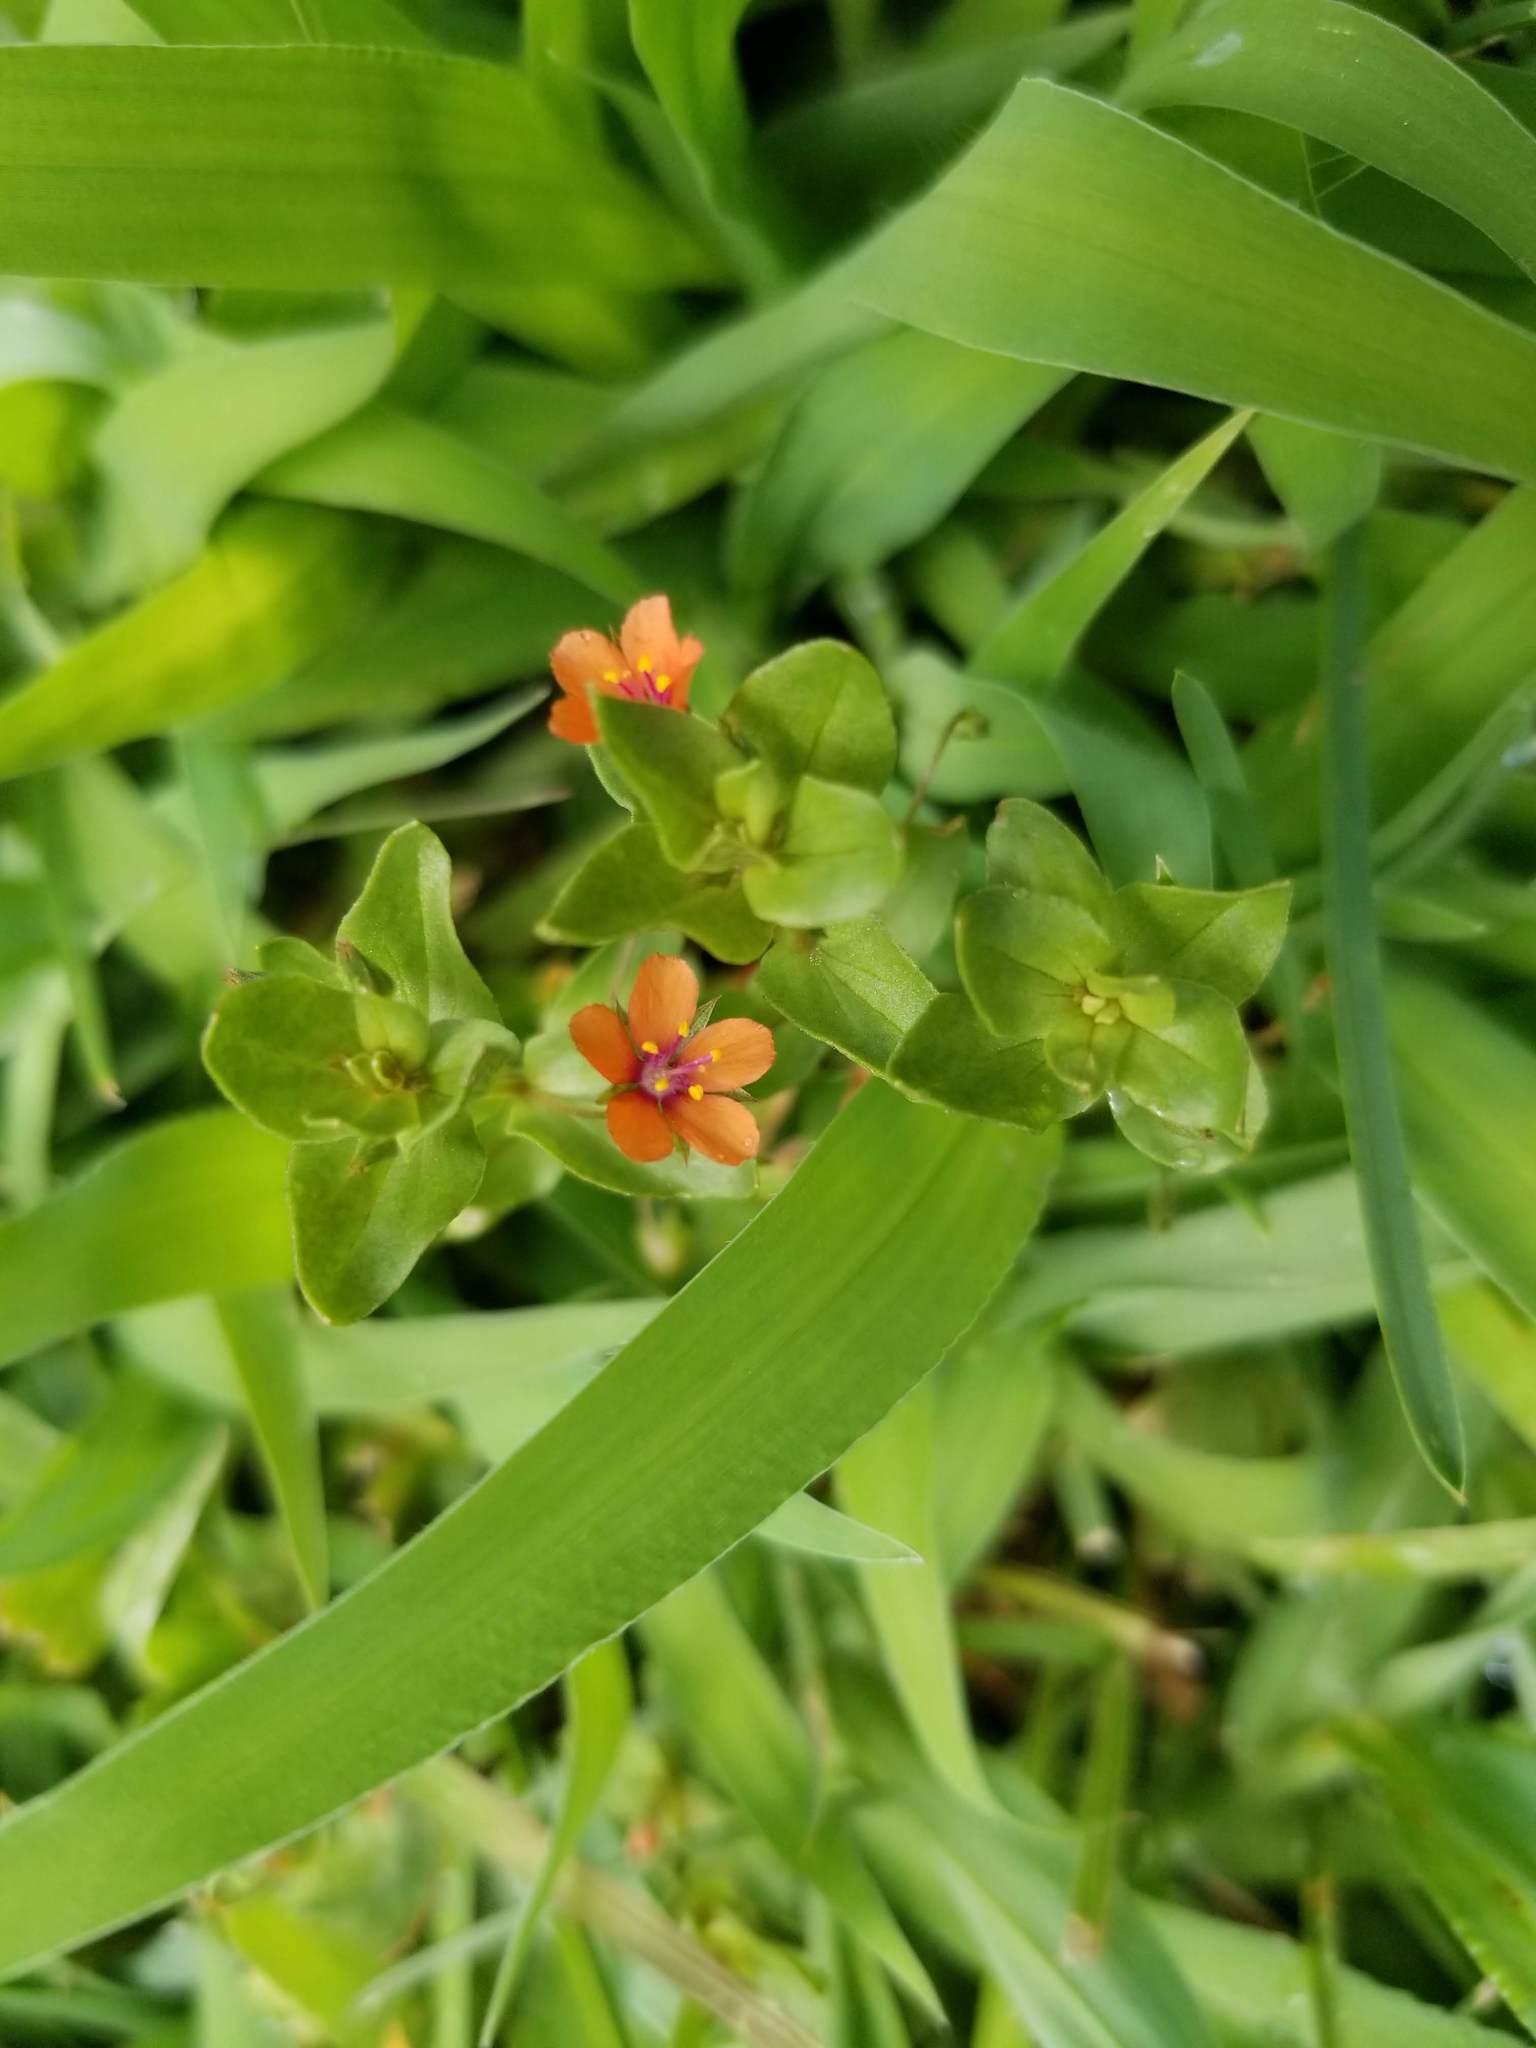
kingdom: Plantae
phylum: Tracheophyta
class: Magnoliopsida
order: Ericales
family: Primulaceae
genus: Lysimachia
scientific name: Lysimachia arvensis
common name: Scarlet pimpernel
